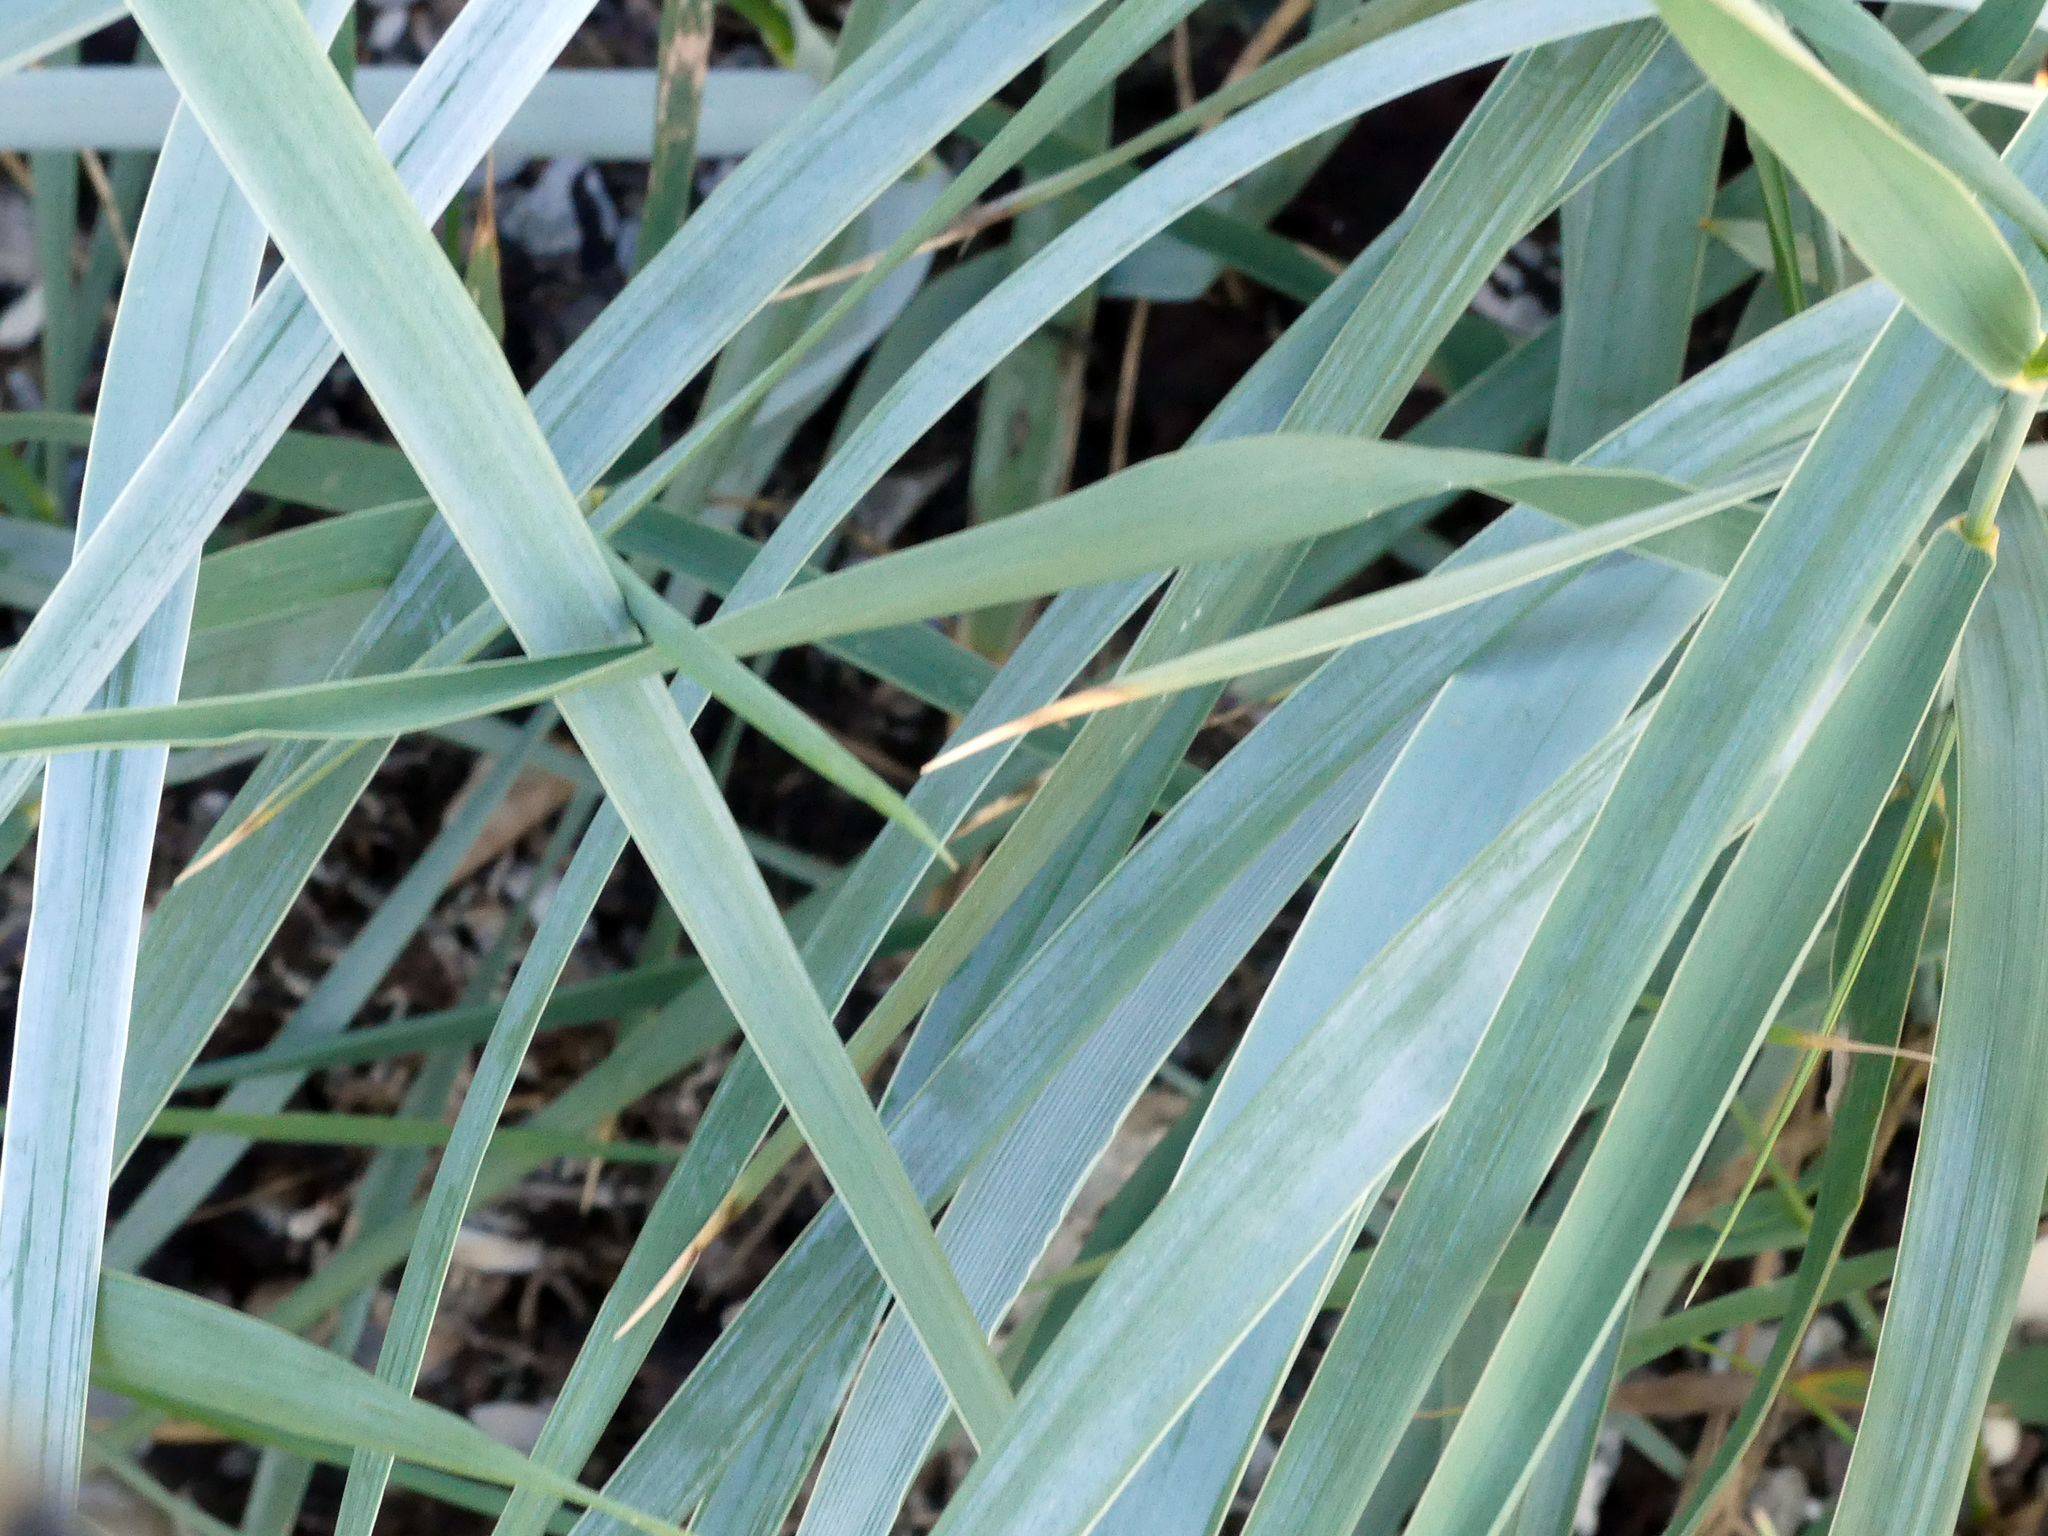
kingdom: Plantae
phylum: Tracheophyta
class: Liliopsida
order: Poales
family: Poaceae
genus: Leymus
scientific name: Leymus arenarius
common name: Lyme-grass
